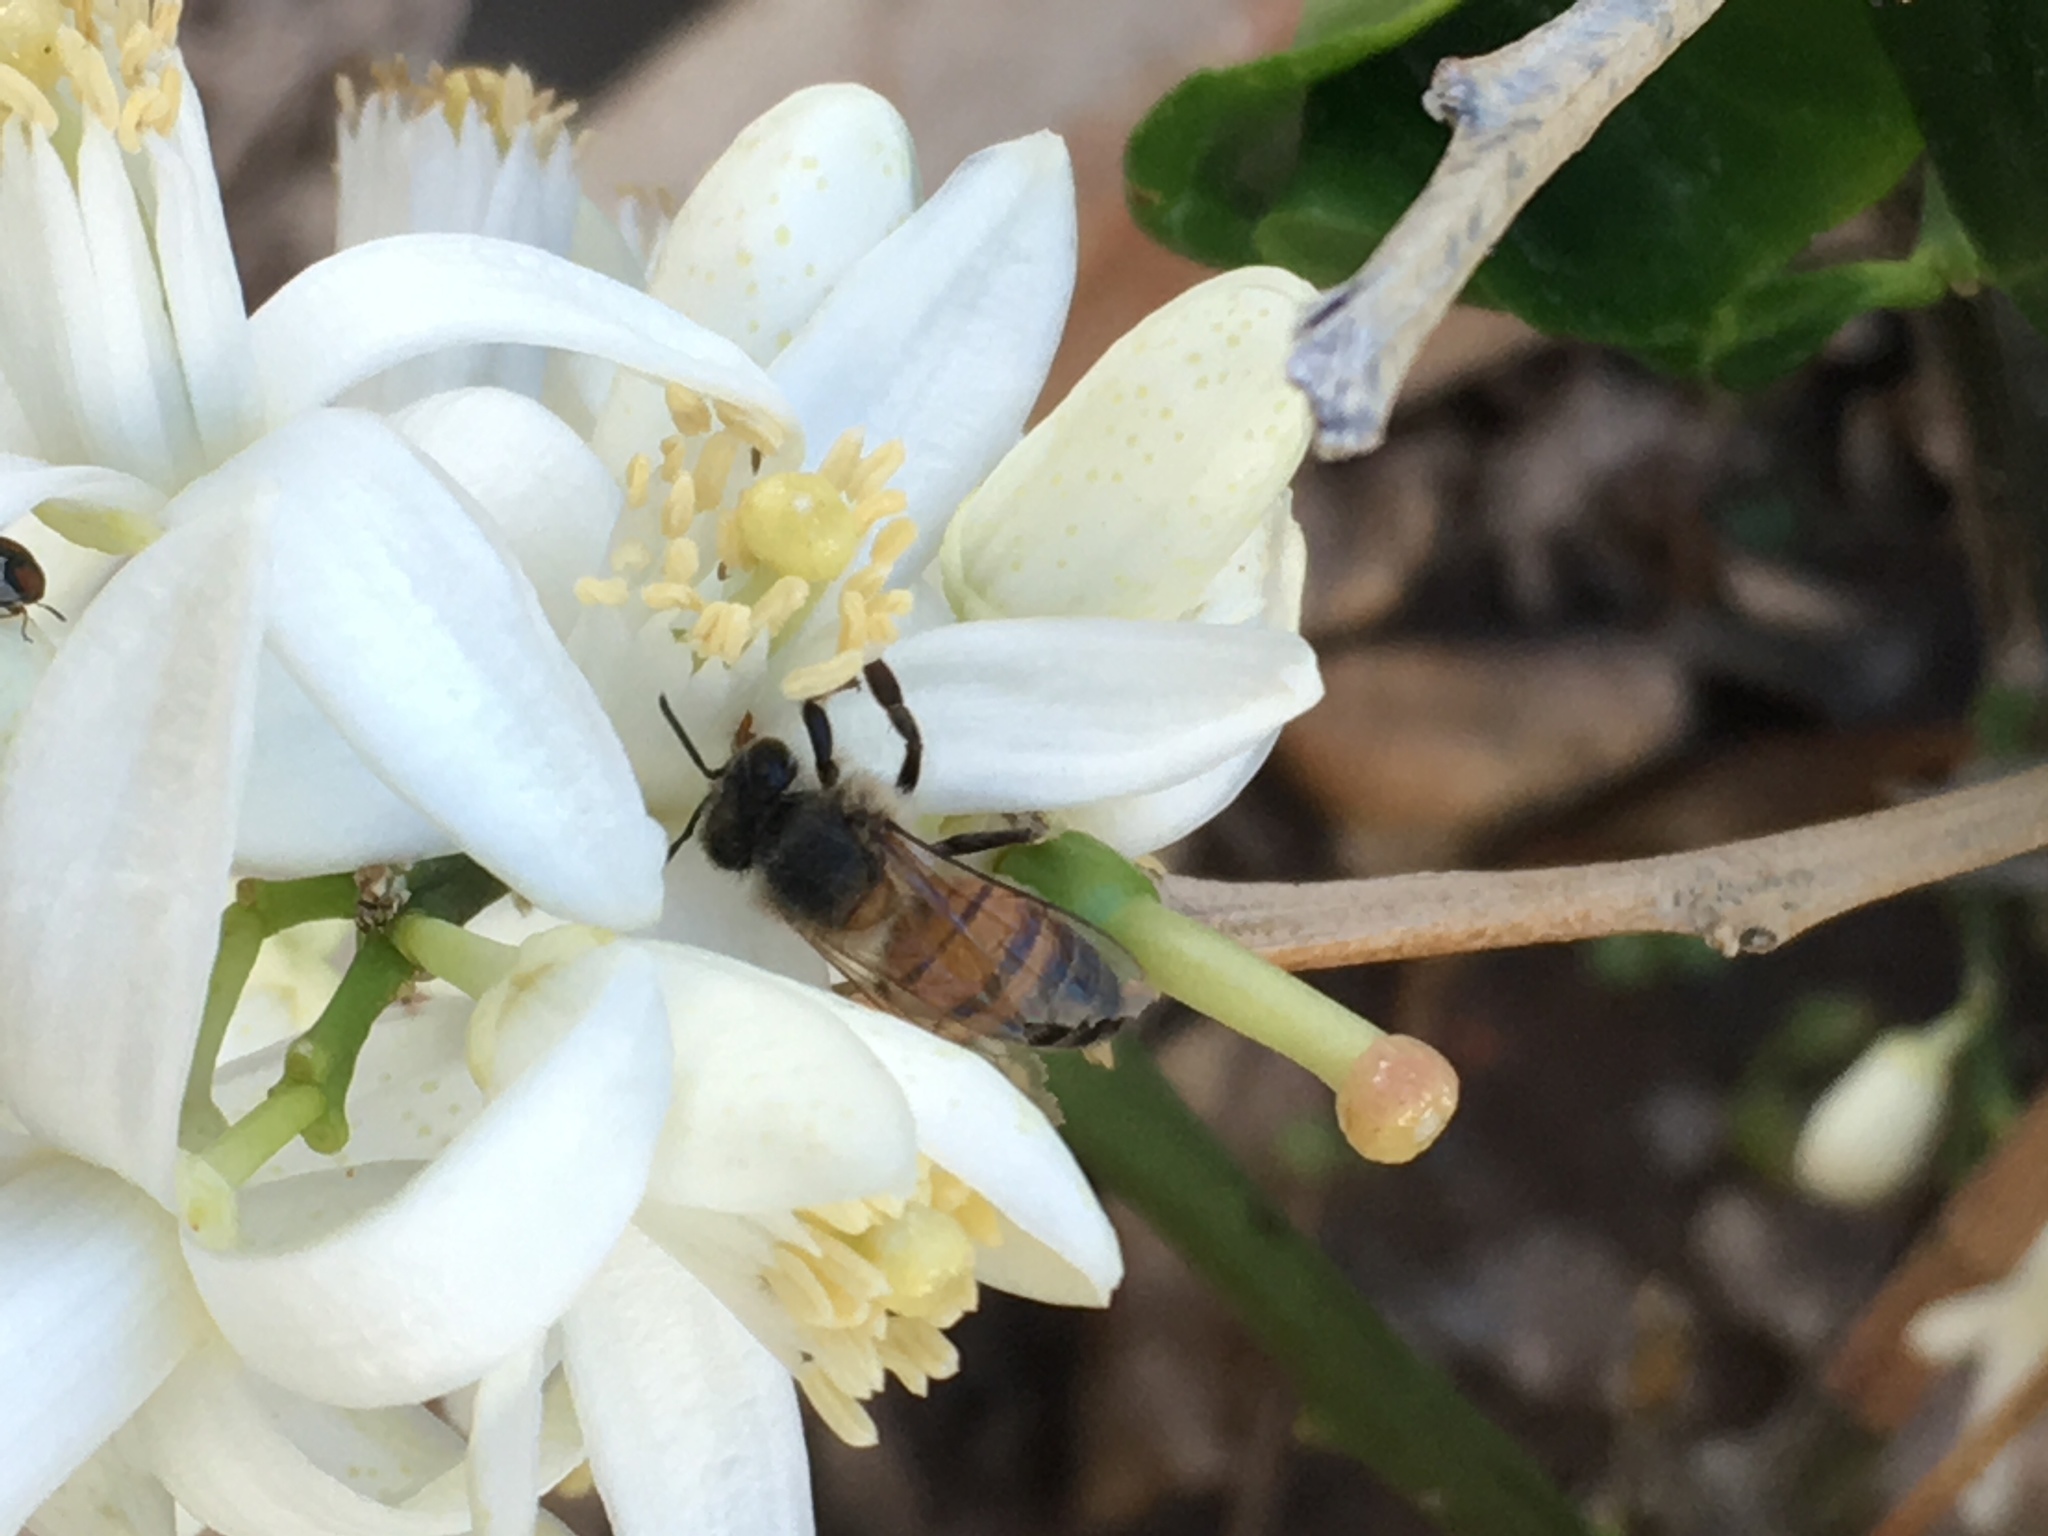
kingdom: Animalia
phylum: Arthropoda
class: Insecta
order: Hymenoptera
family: Apidae
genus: Apis
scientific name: Apis mellifera
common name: Honey bee
